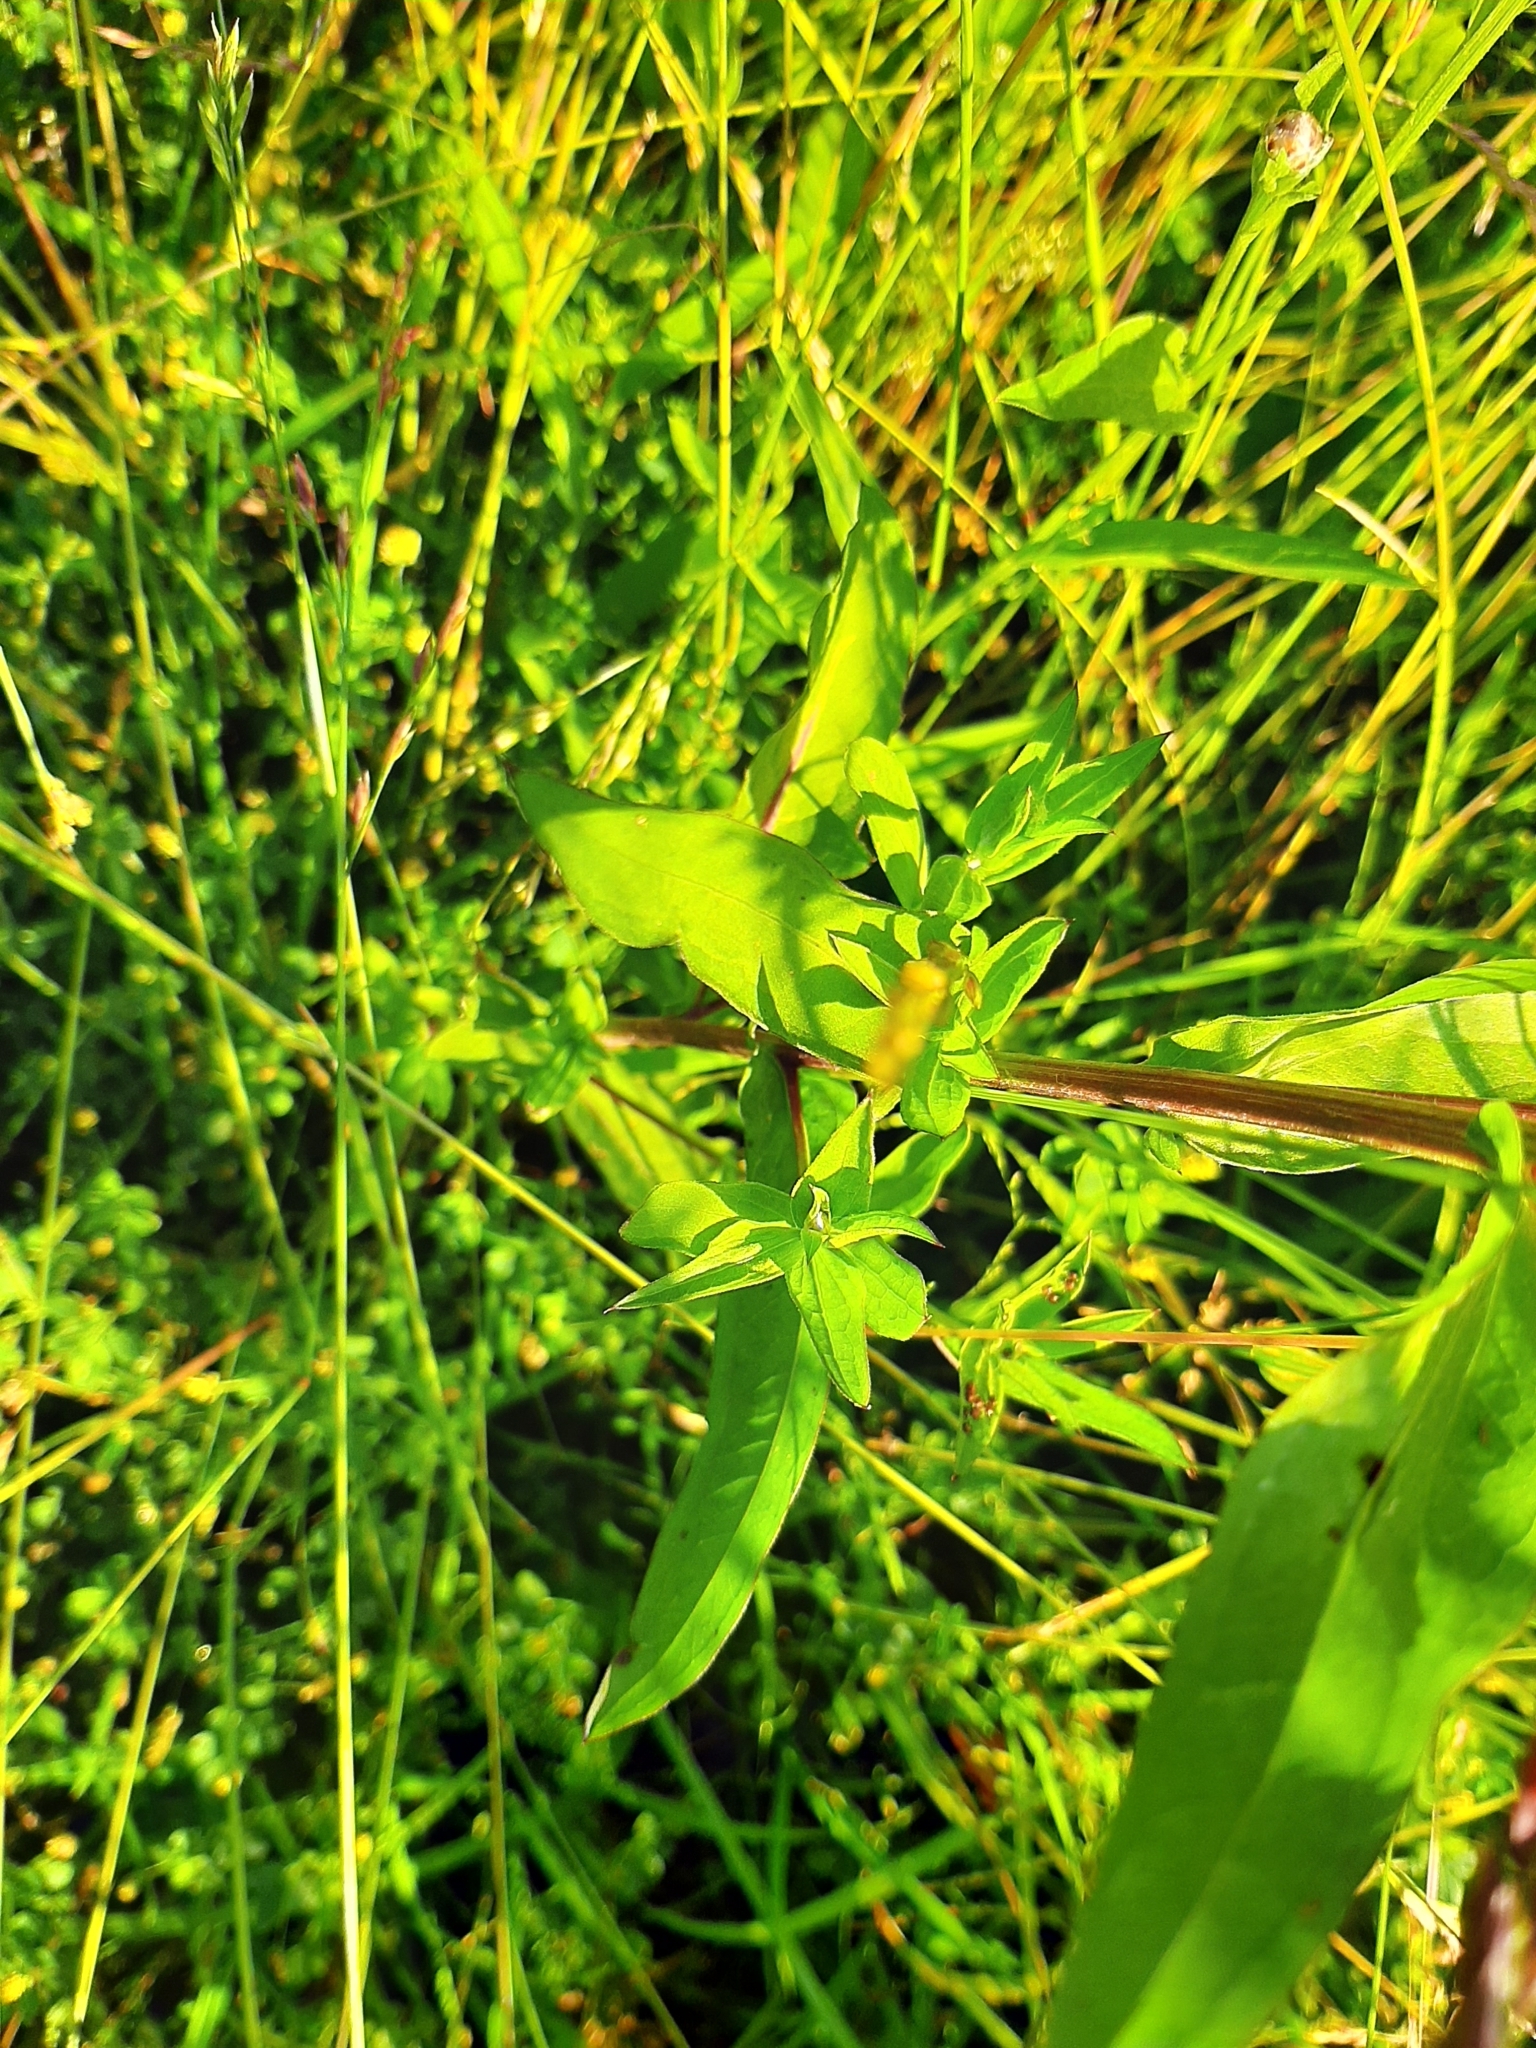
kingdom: Plantae
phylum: Tracheophyta
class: Magnoliopsida
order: Asterales
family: Asteraceae
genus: Centaurea
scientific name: Centaurea jacea
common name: Brown knapweed
